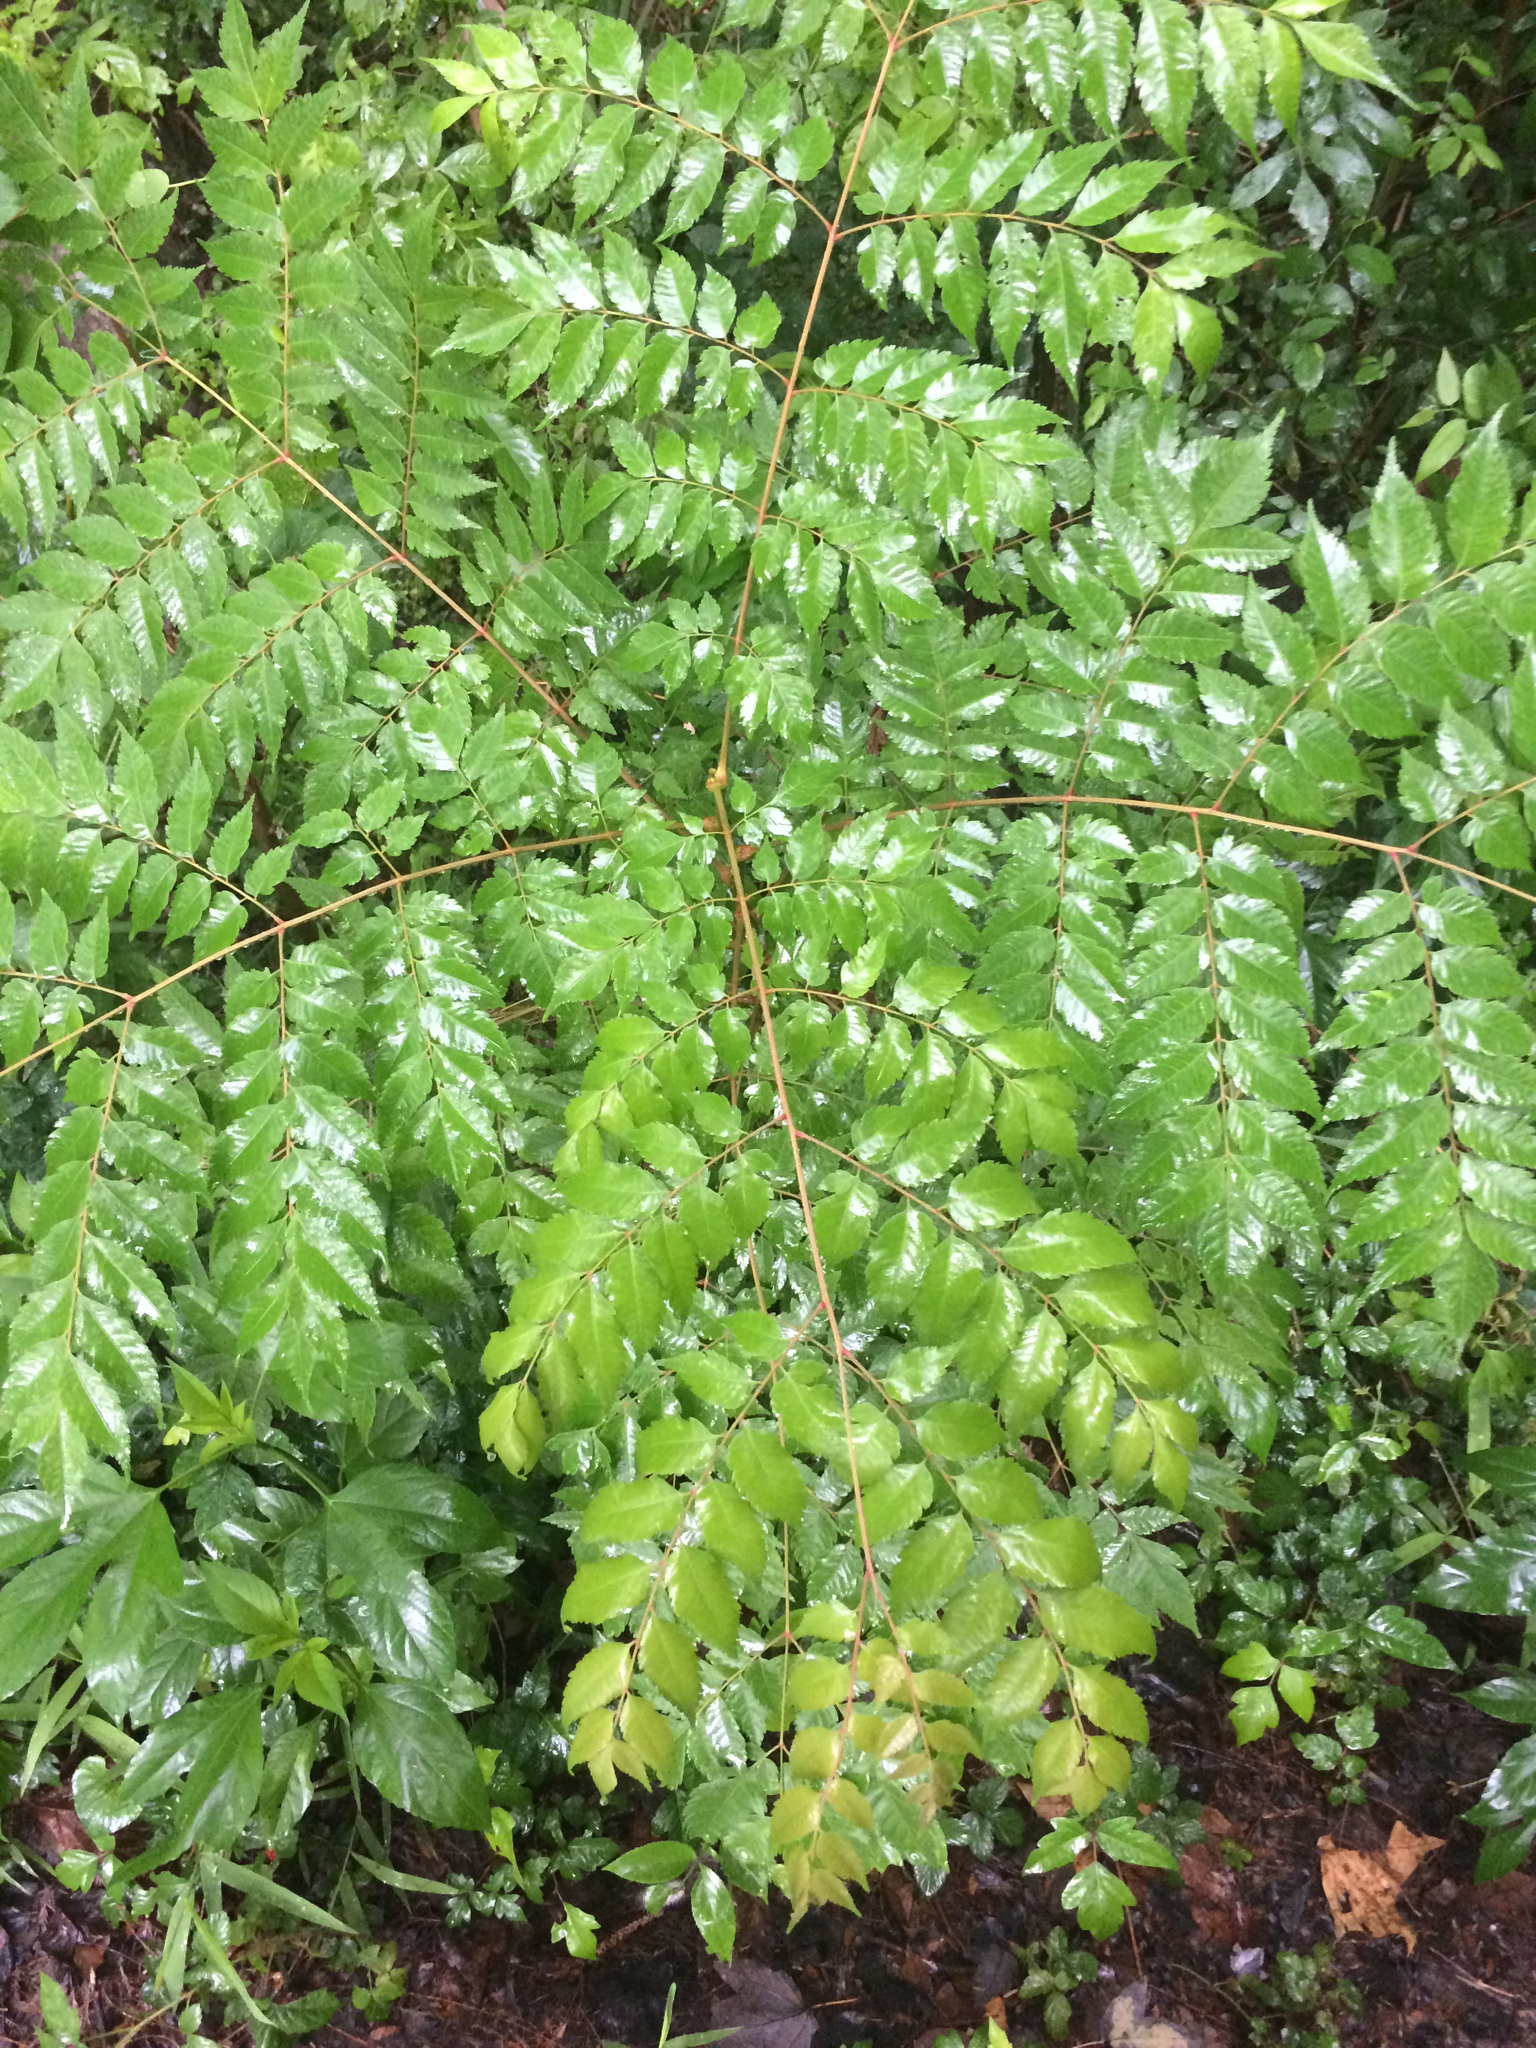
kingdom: Plantae
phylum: Tracheophyta
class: Magnoliopsida
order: Sapindales
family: Meliaceae
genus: Melia
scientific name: Melia azedarach
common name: Chinaberrytree
